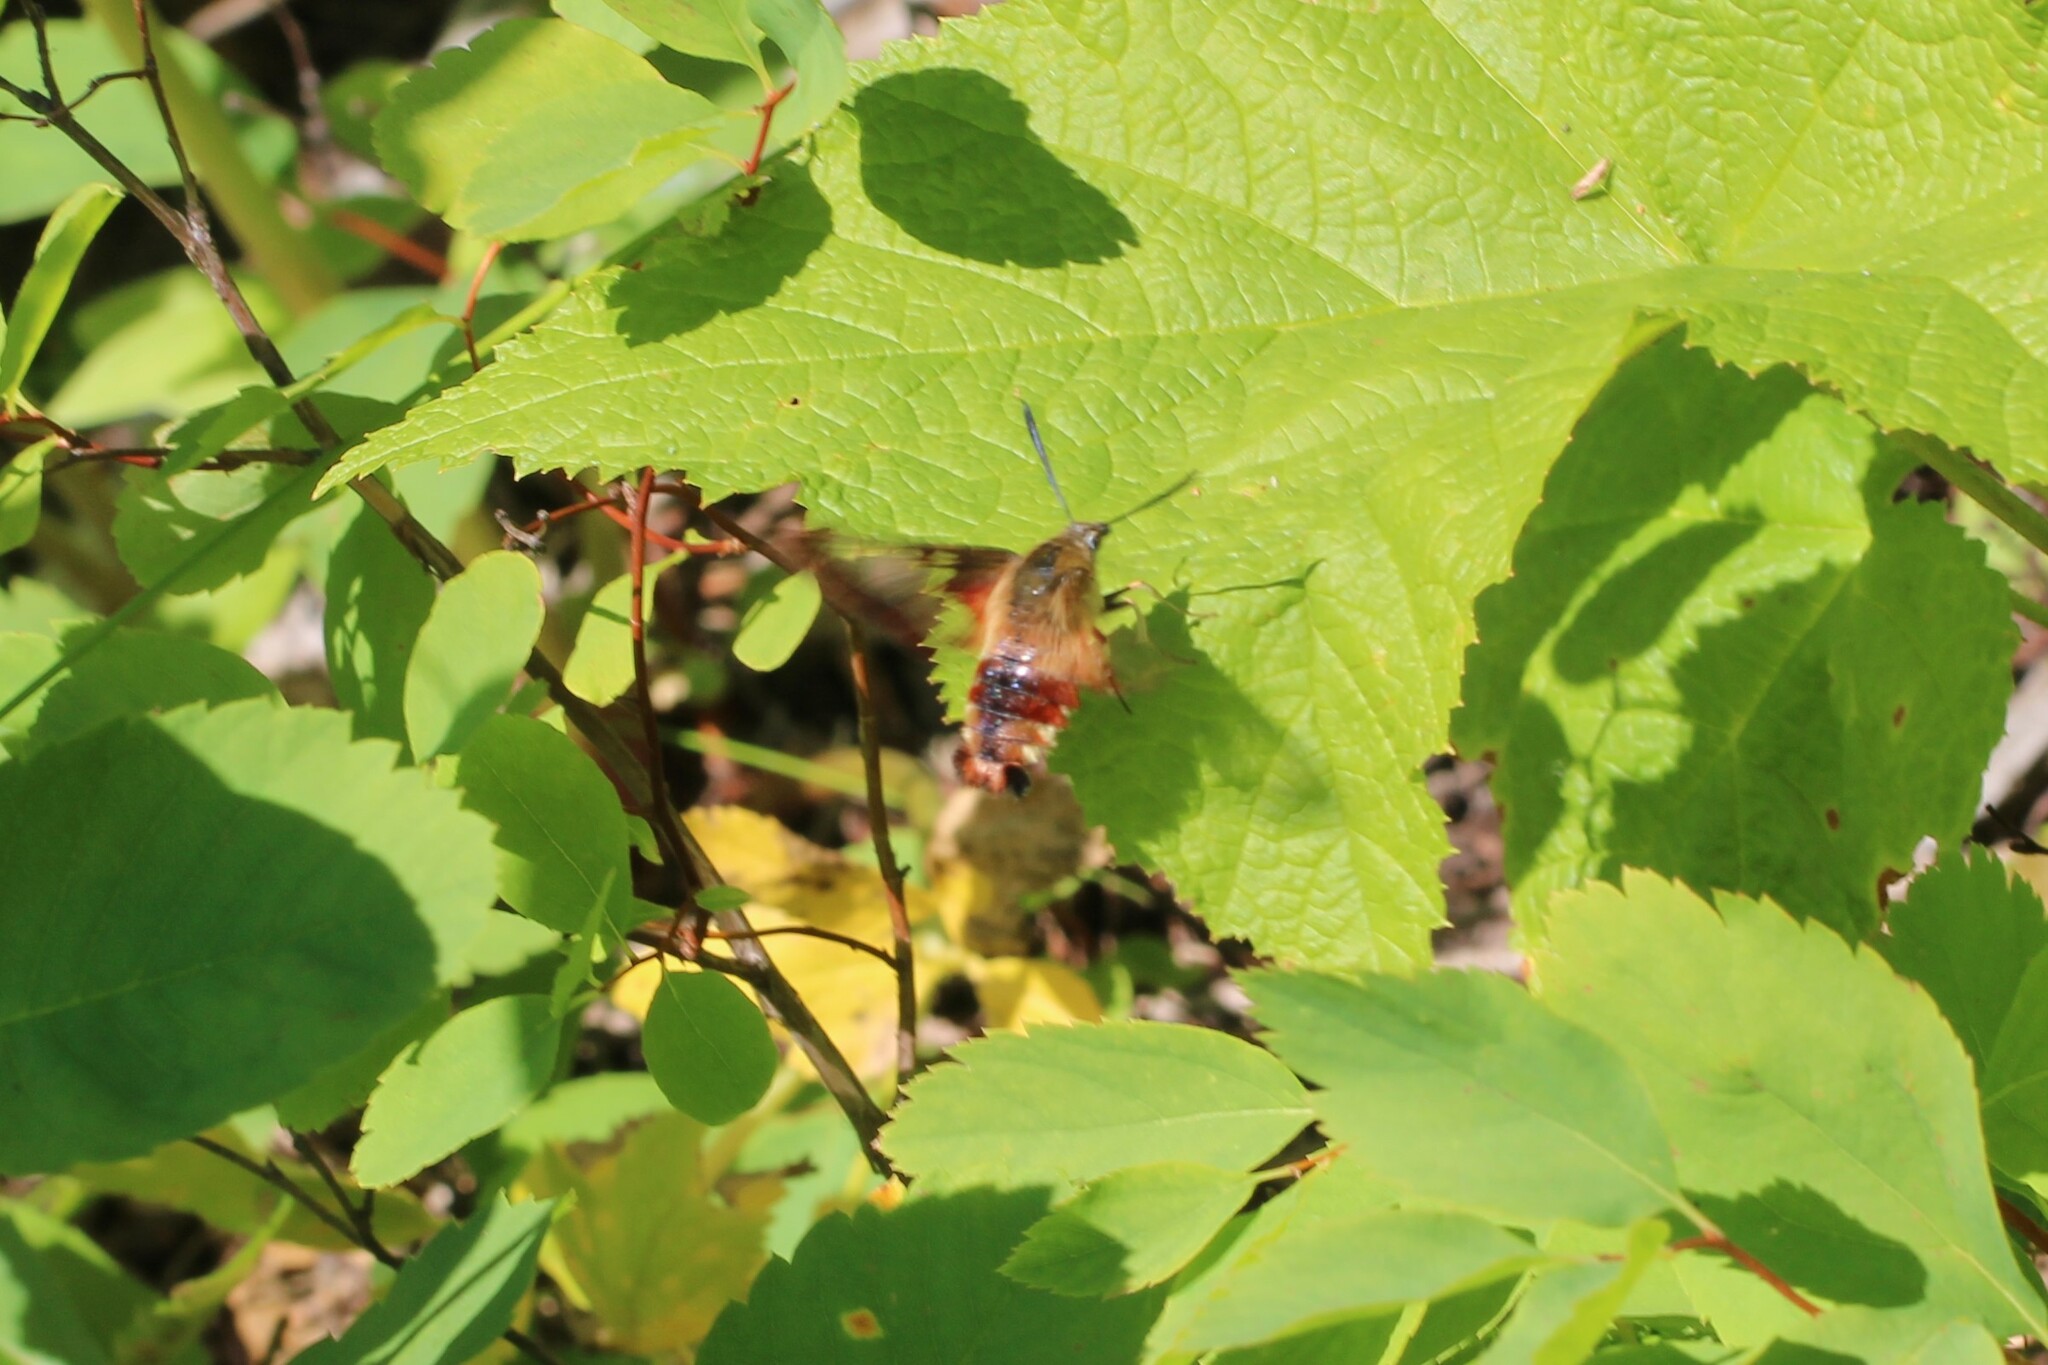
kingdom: Animalia
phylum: Arthropoda
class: Insecta
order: Lepidoptera
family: Sphingidae
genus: Hemaris
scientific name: Hemaris thysbe
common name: Common clear-wing
